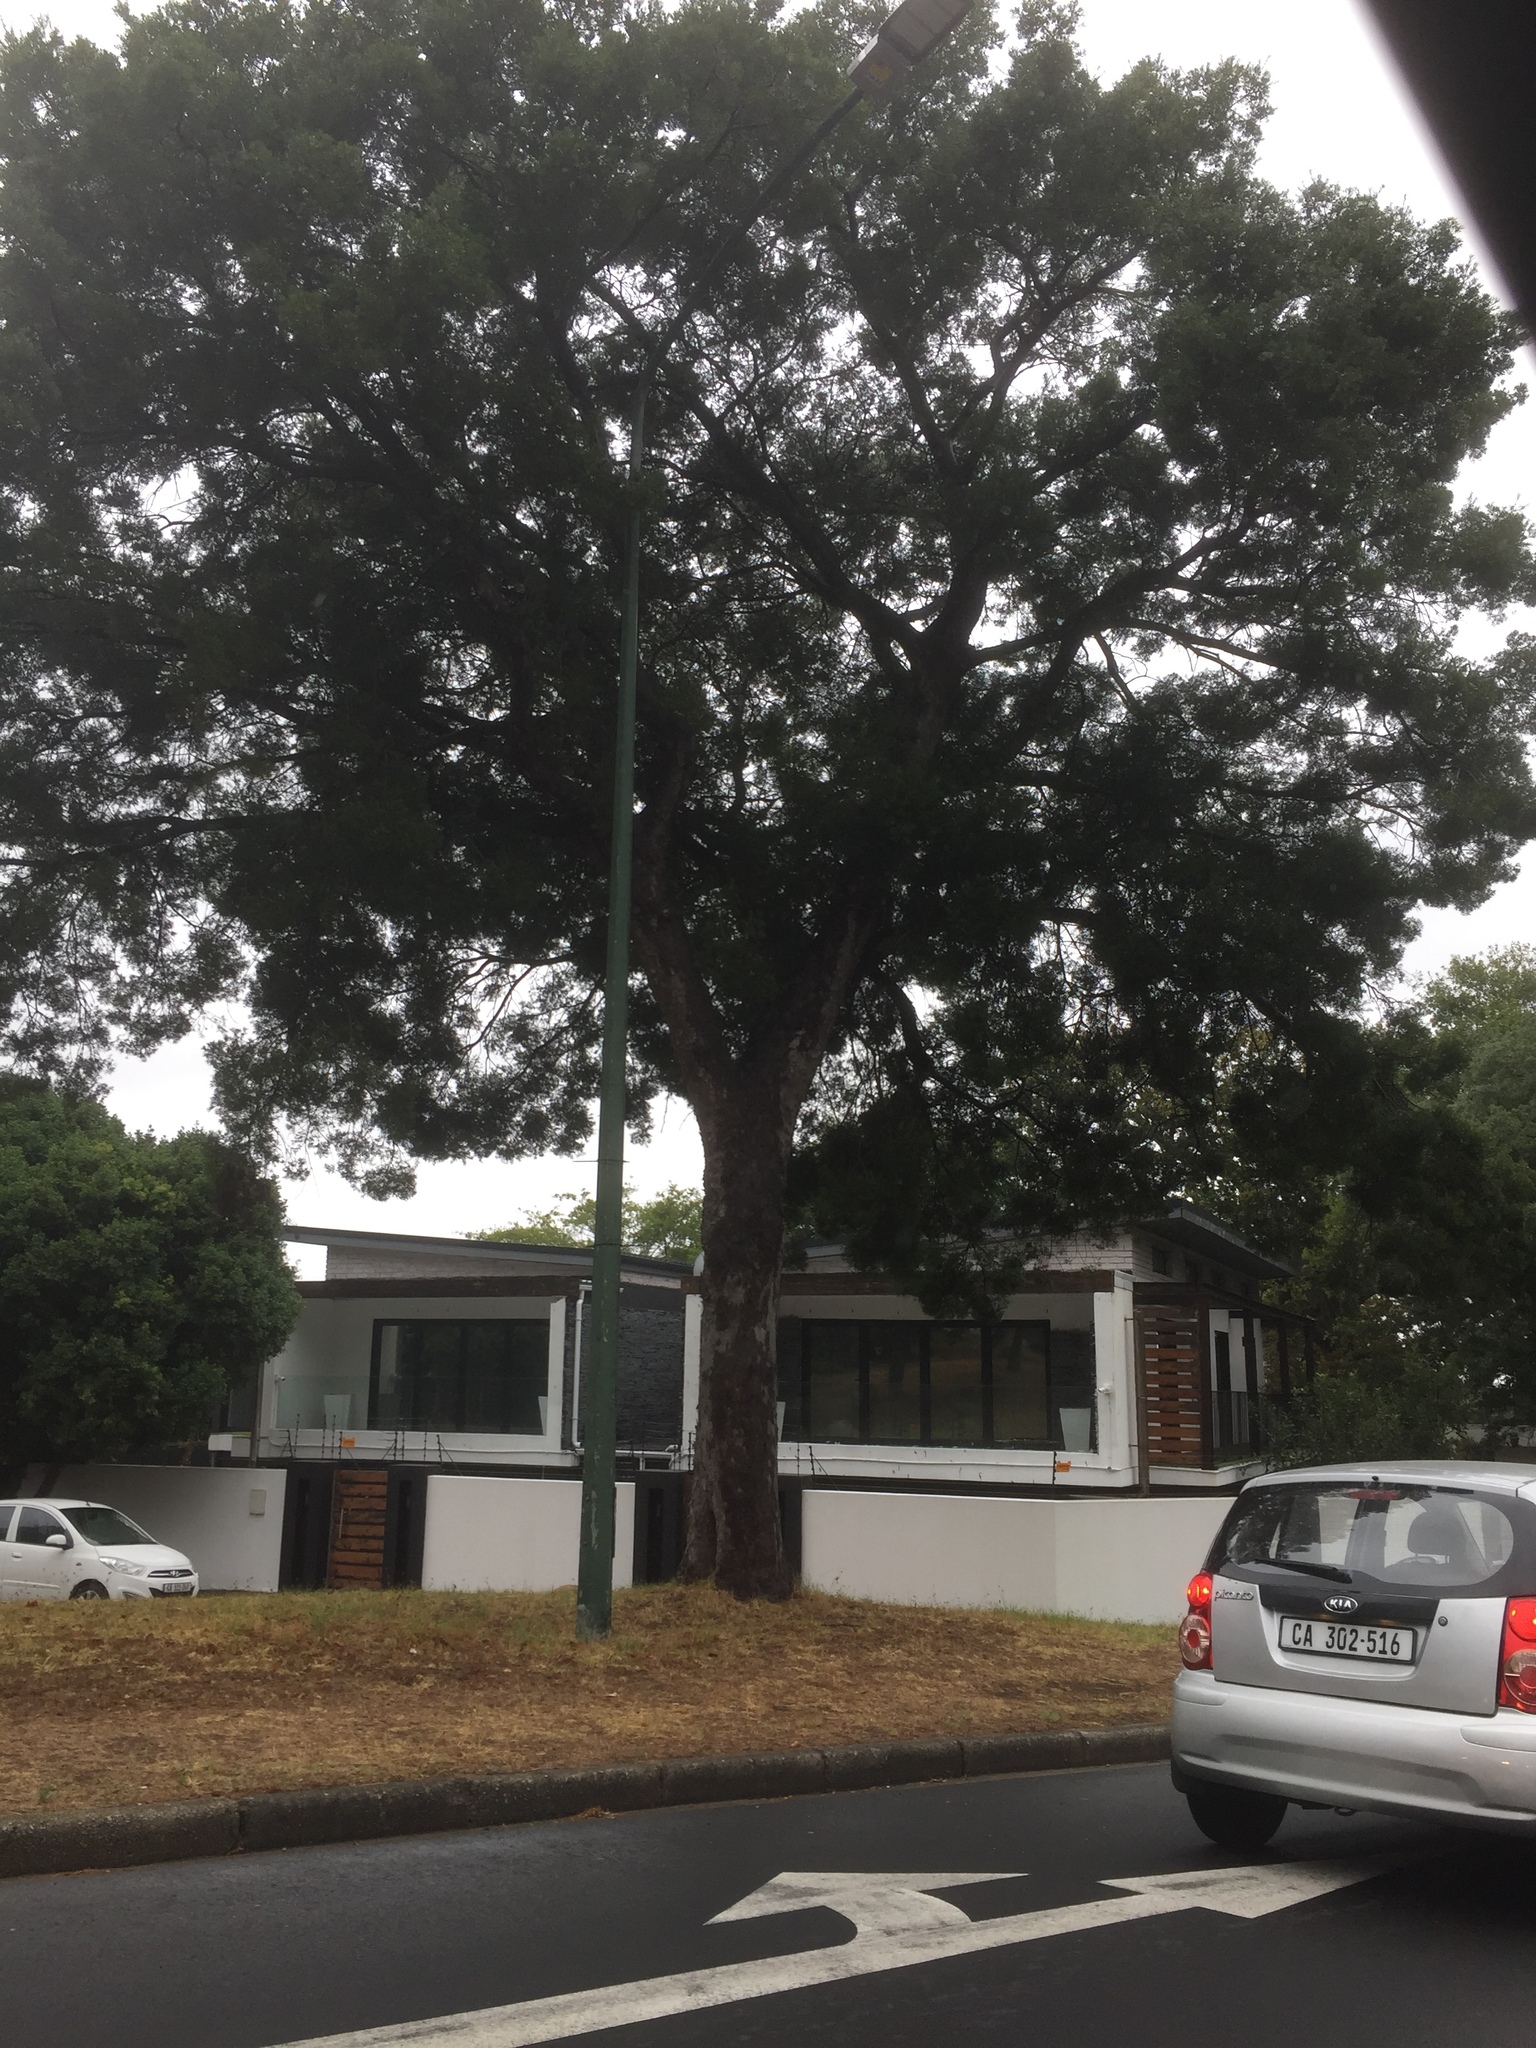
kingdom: Plantae
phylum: Tracheophyta
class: Pinopsida
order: Pinales
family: Podocarpaceae
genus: Afrocarpus
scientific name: Afrocarpus falcatus
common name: Bastard yellowwood
